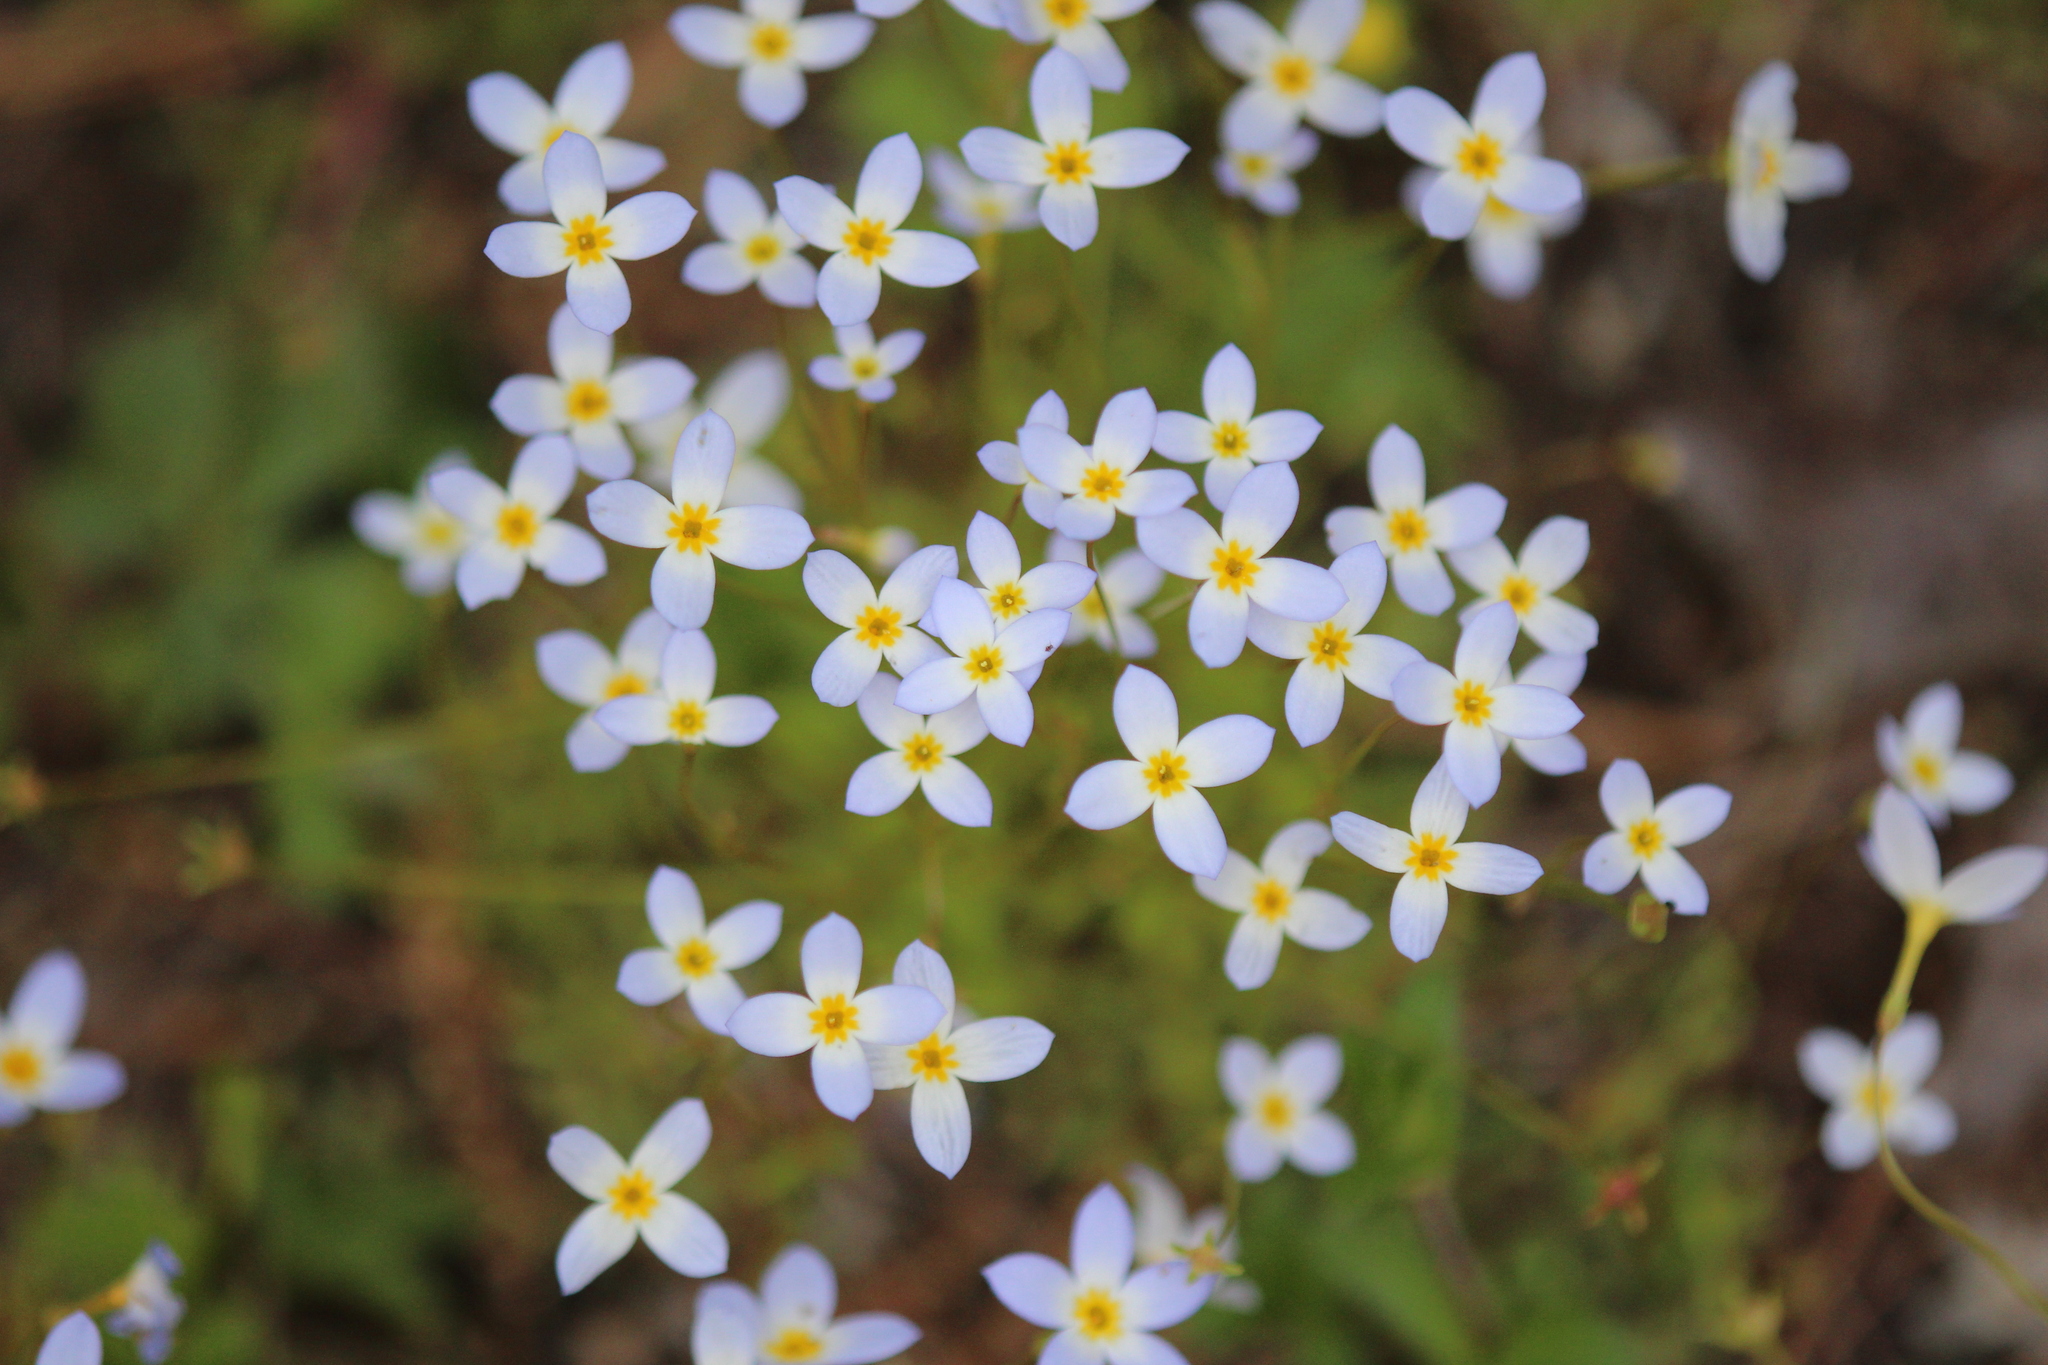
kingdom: Plantae
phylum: Tracheophyta
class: Magnoliopsida
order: Gentianales
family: Rubiaceae
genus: Houstonia
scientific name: Houstonia caerulea
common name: Bluets
